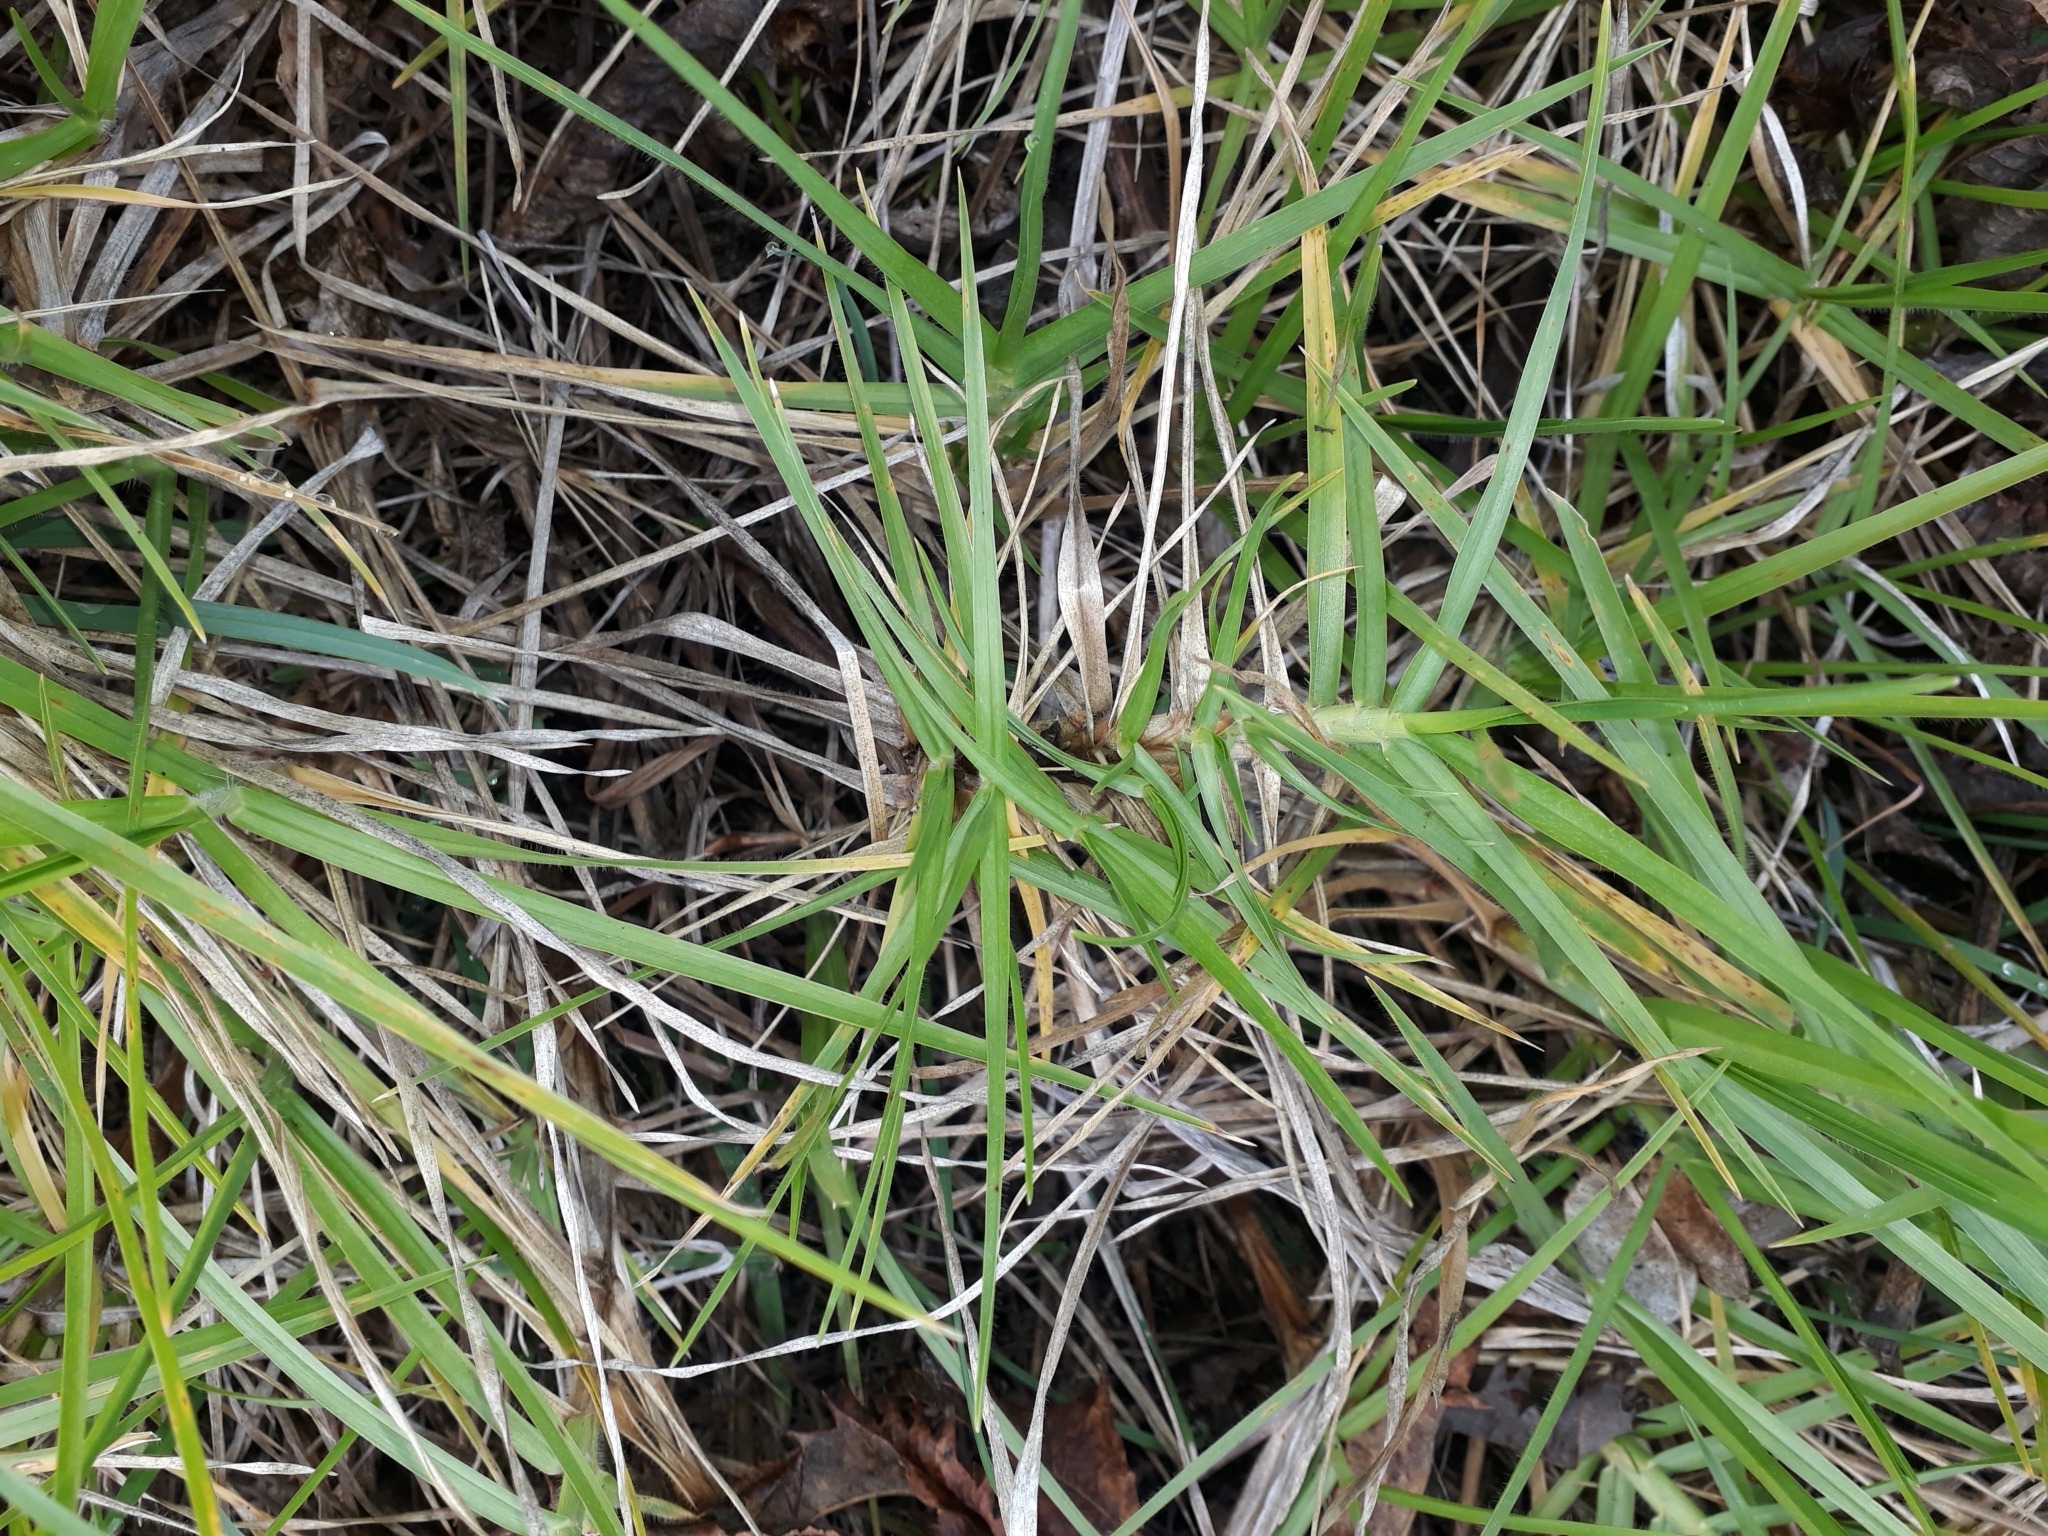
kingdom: Plantae
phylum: Tracheophyta
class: Liliopsida
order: Poales
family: Poaceae
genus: Cenchrus
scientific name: Cenchrus clandestinus
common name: Kikuyugrass
